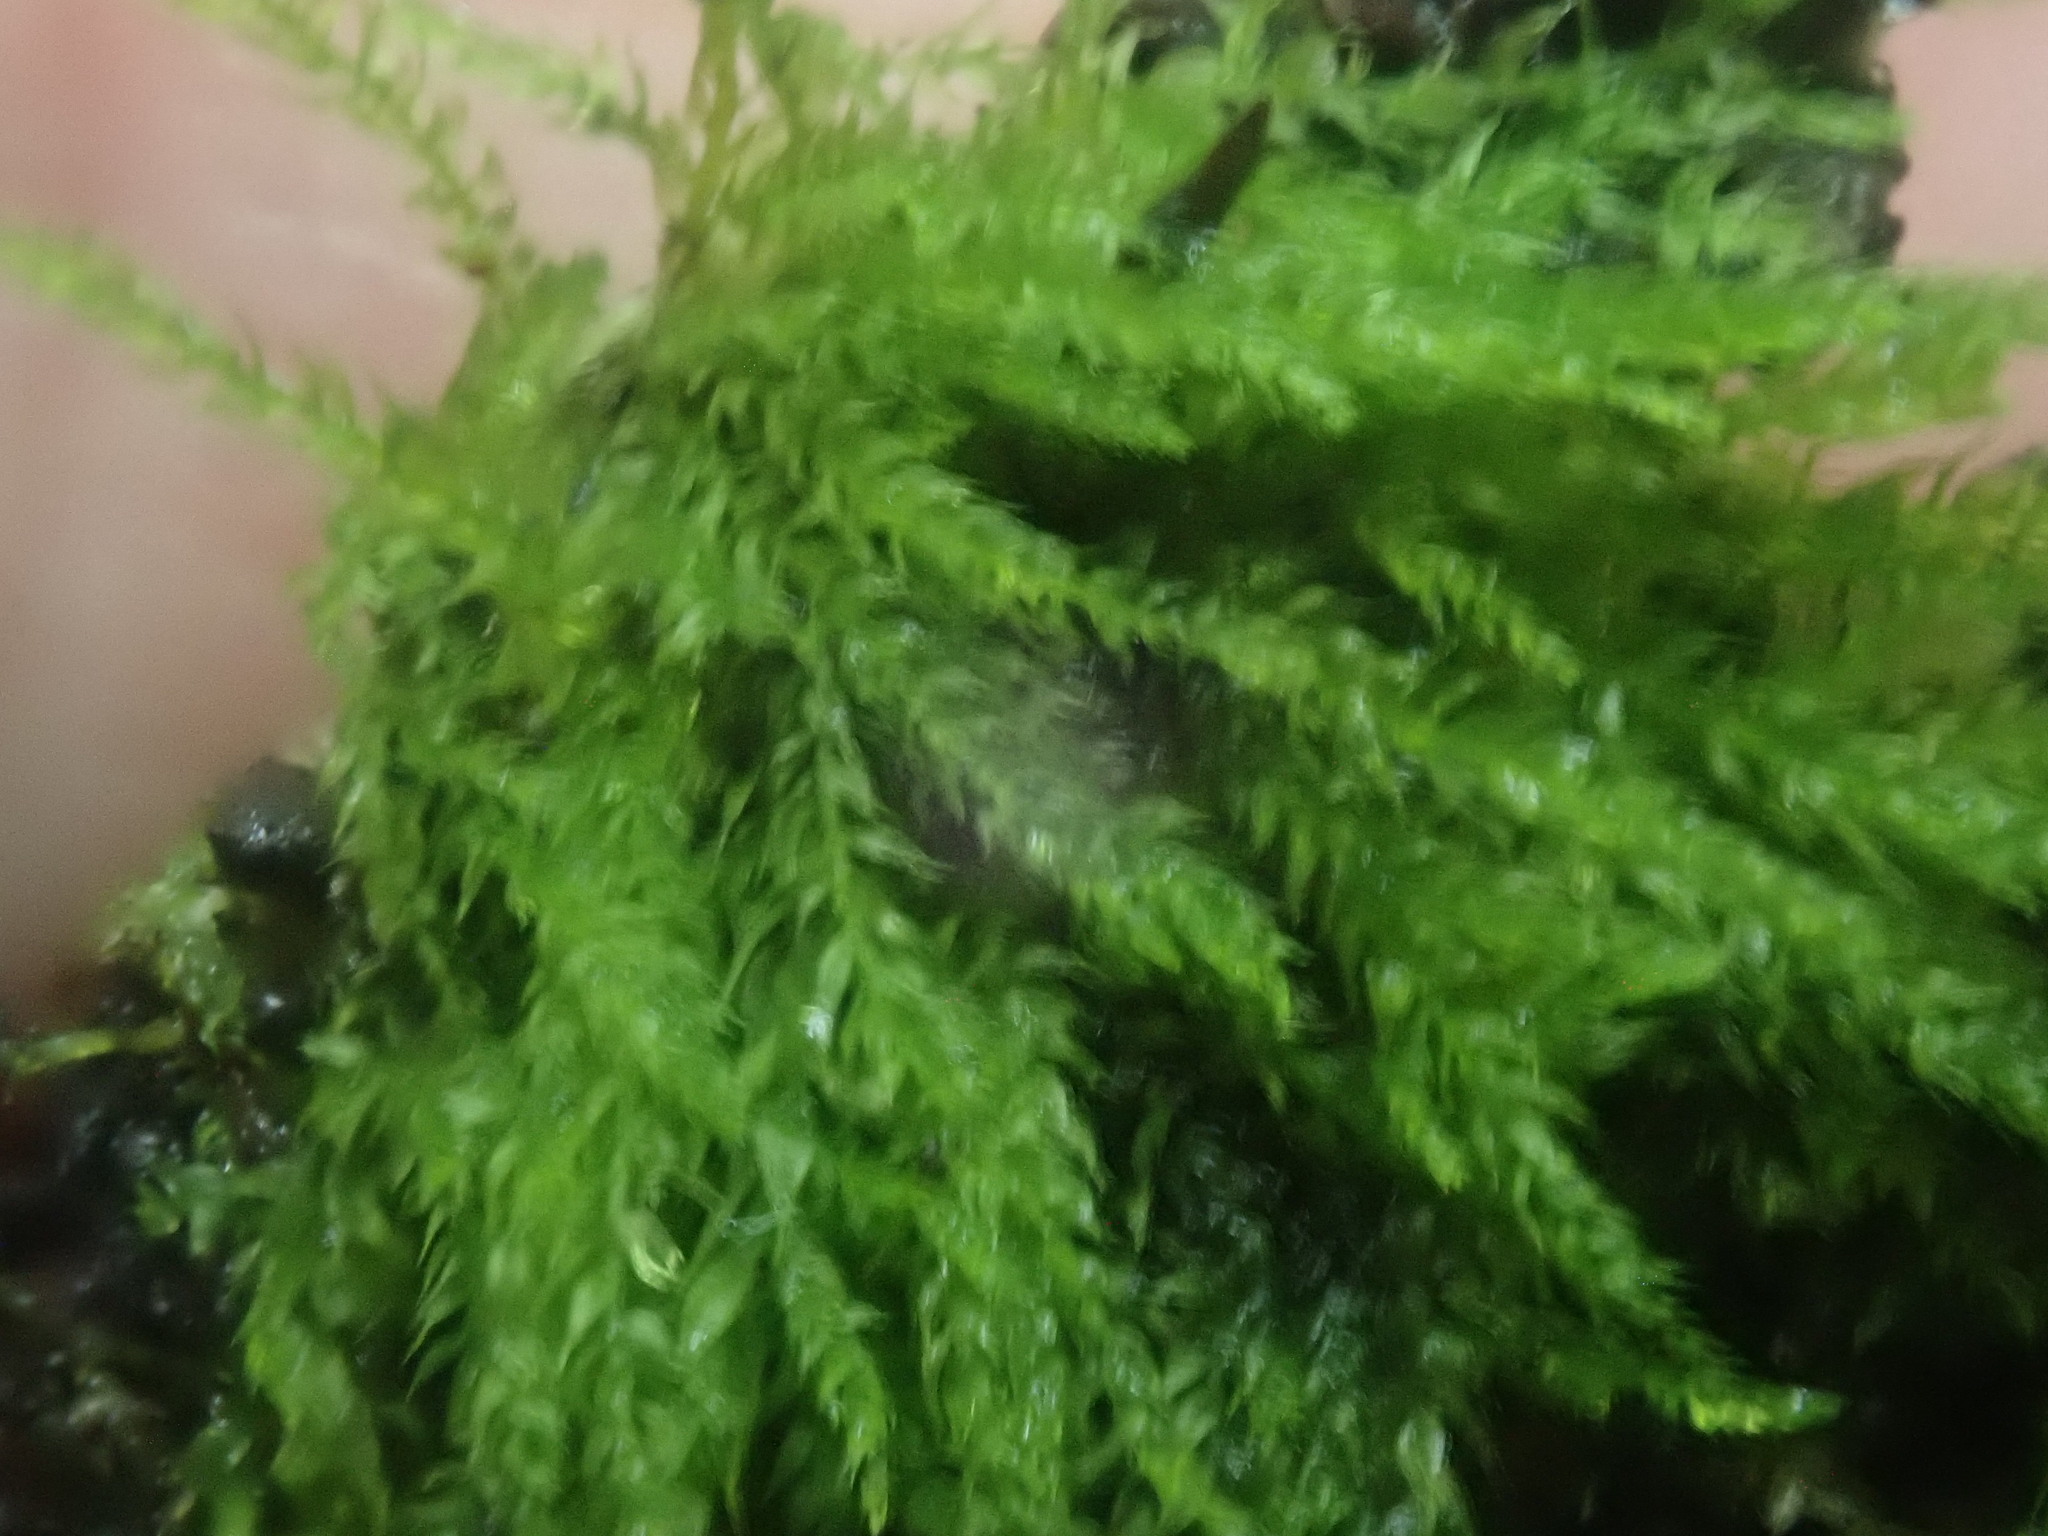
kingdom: Plantae
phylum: Bryophyta
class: Bryopsida
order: Hypnales
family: Brachytheciaceae
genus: Koponeniella
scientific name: Koponeniella graminicolor
